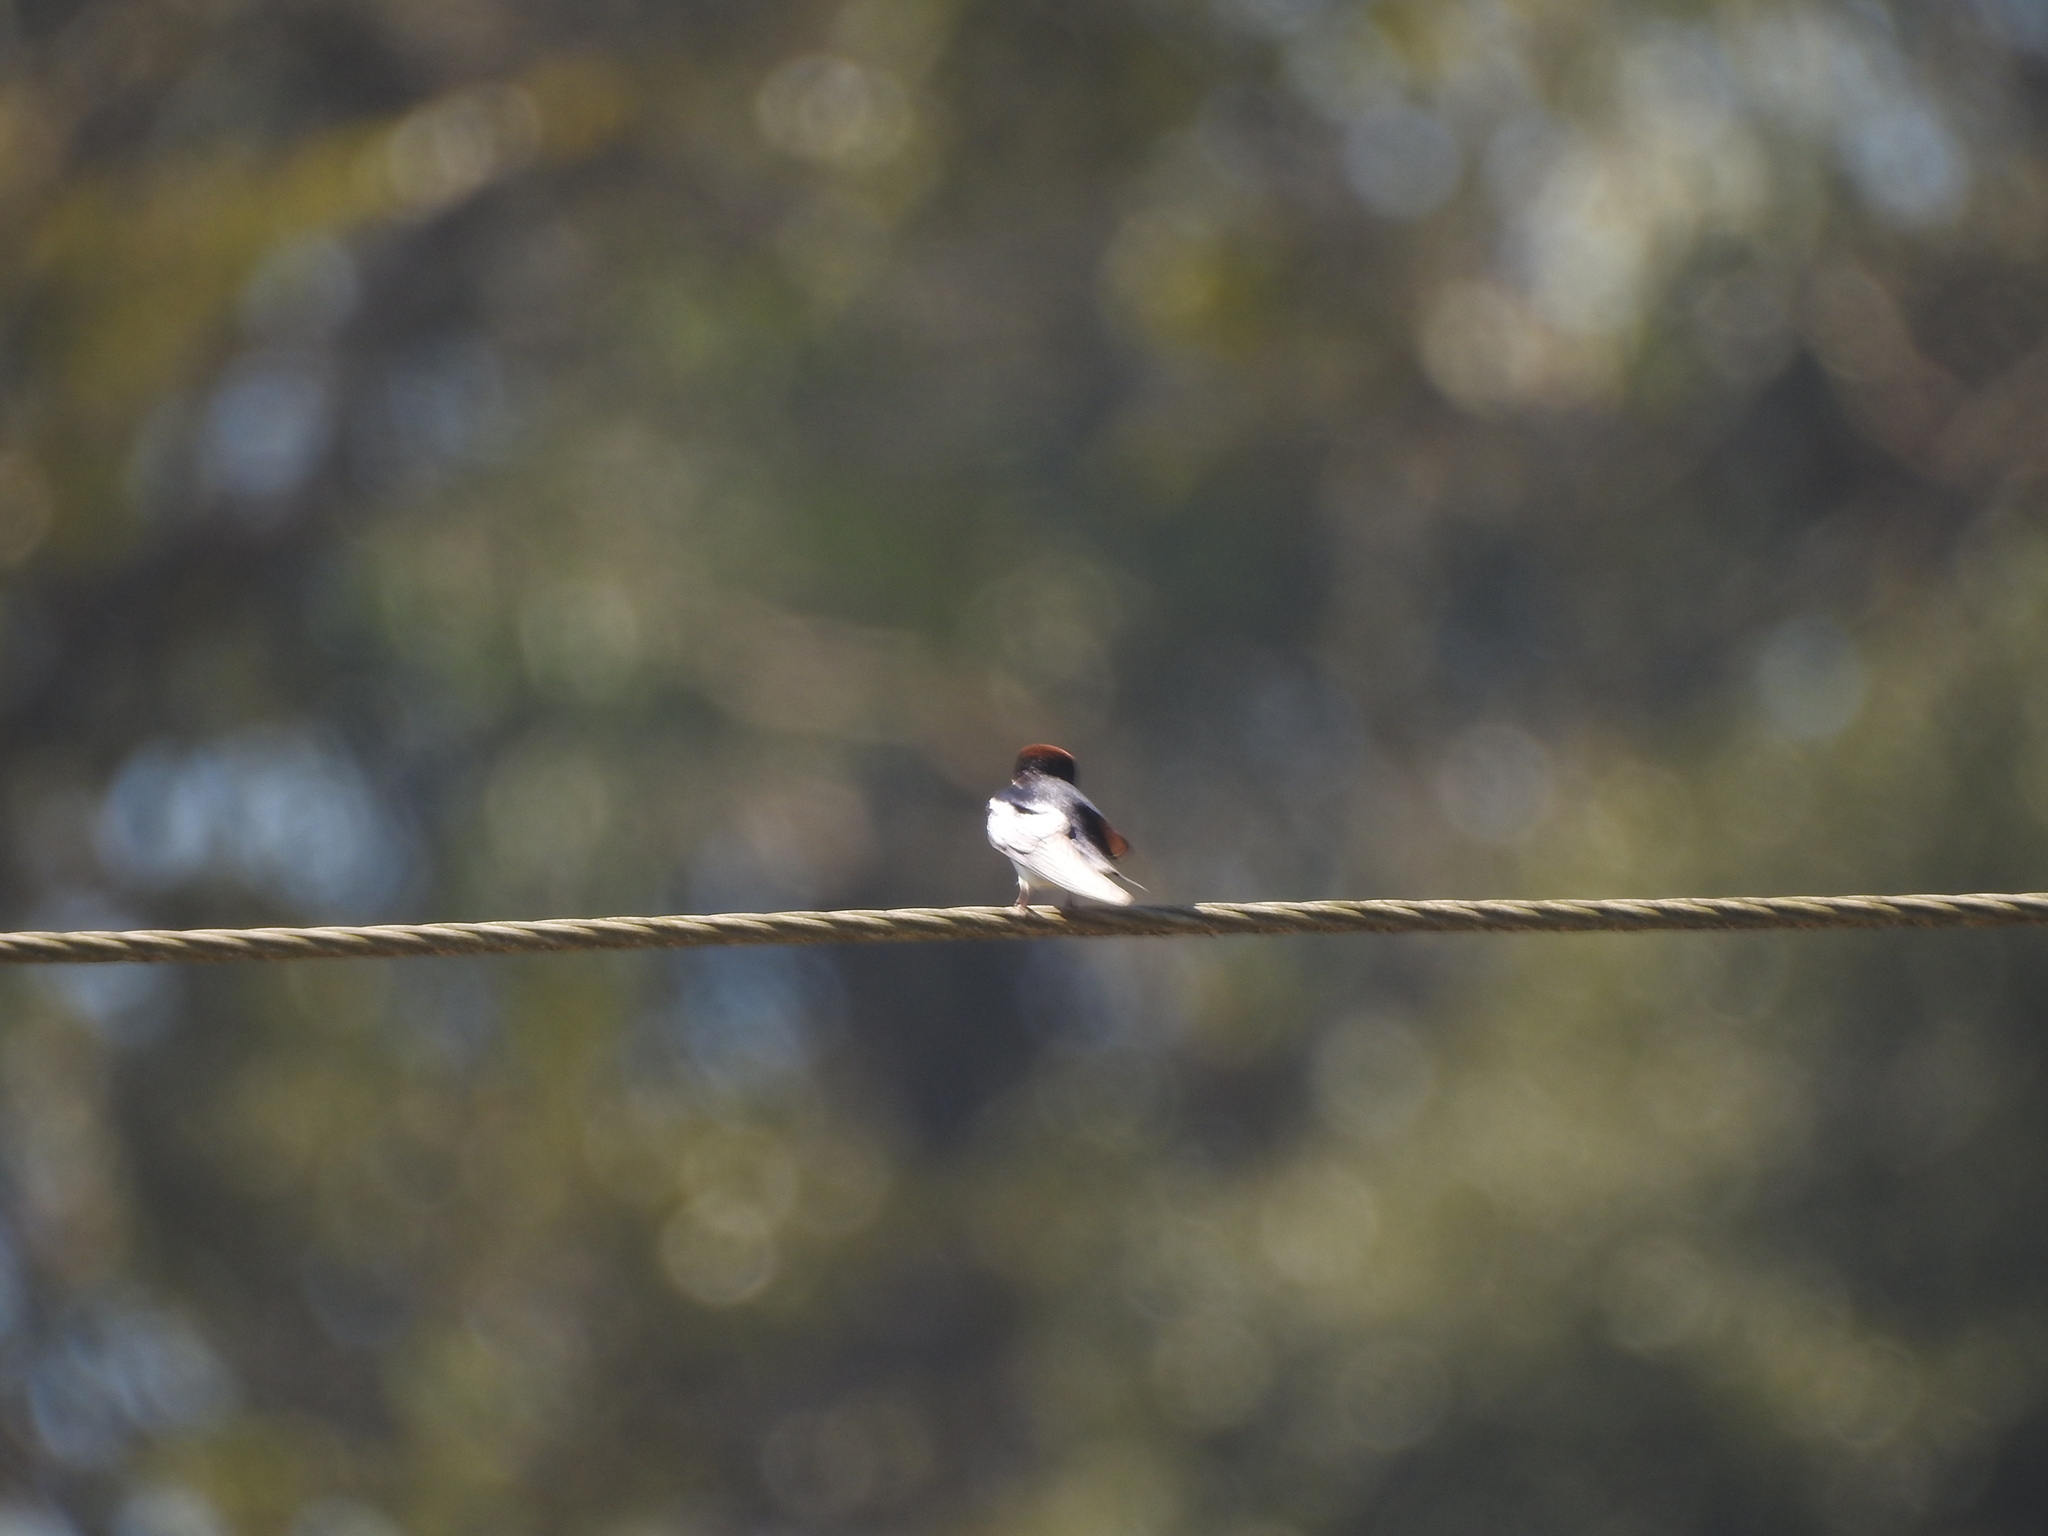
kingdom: Animalia
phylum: Chordata
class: Aves
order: Passeriformes
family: Hirundinidae
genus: Hirundo
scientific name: Hirundo smithii
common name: Wire-tailed swallow
